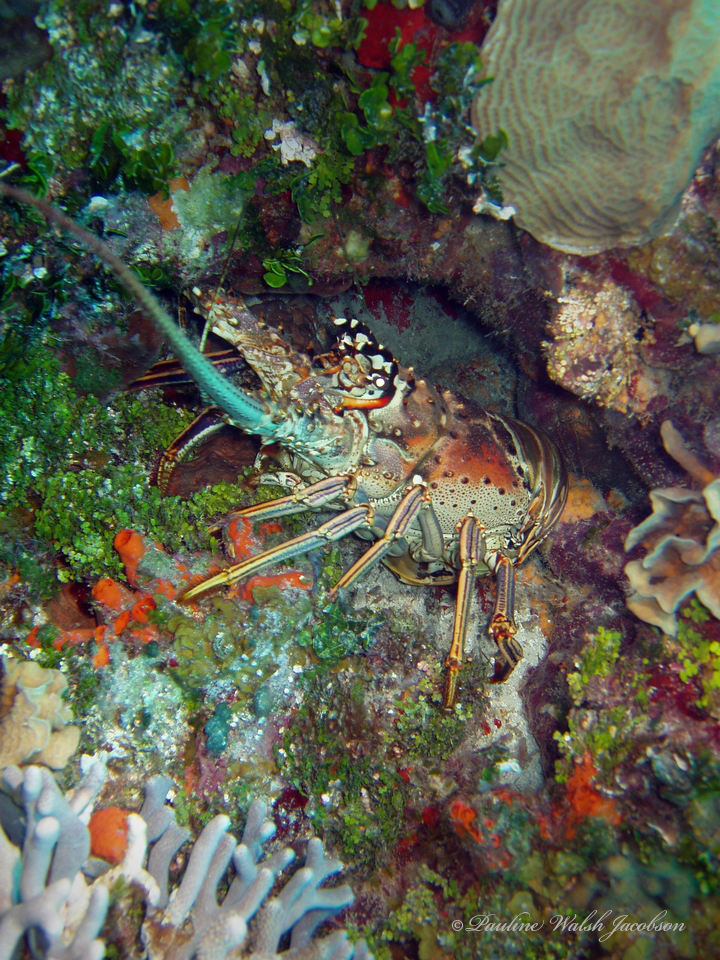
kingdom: Animalia
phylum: Arthropoda
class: Malacostraca
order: Decapoda
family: Palinuridae
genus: Panulirus
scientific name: Panulirus argus
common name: Caribbean spiny lobster
